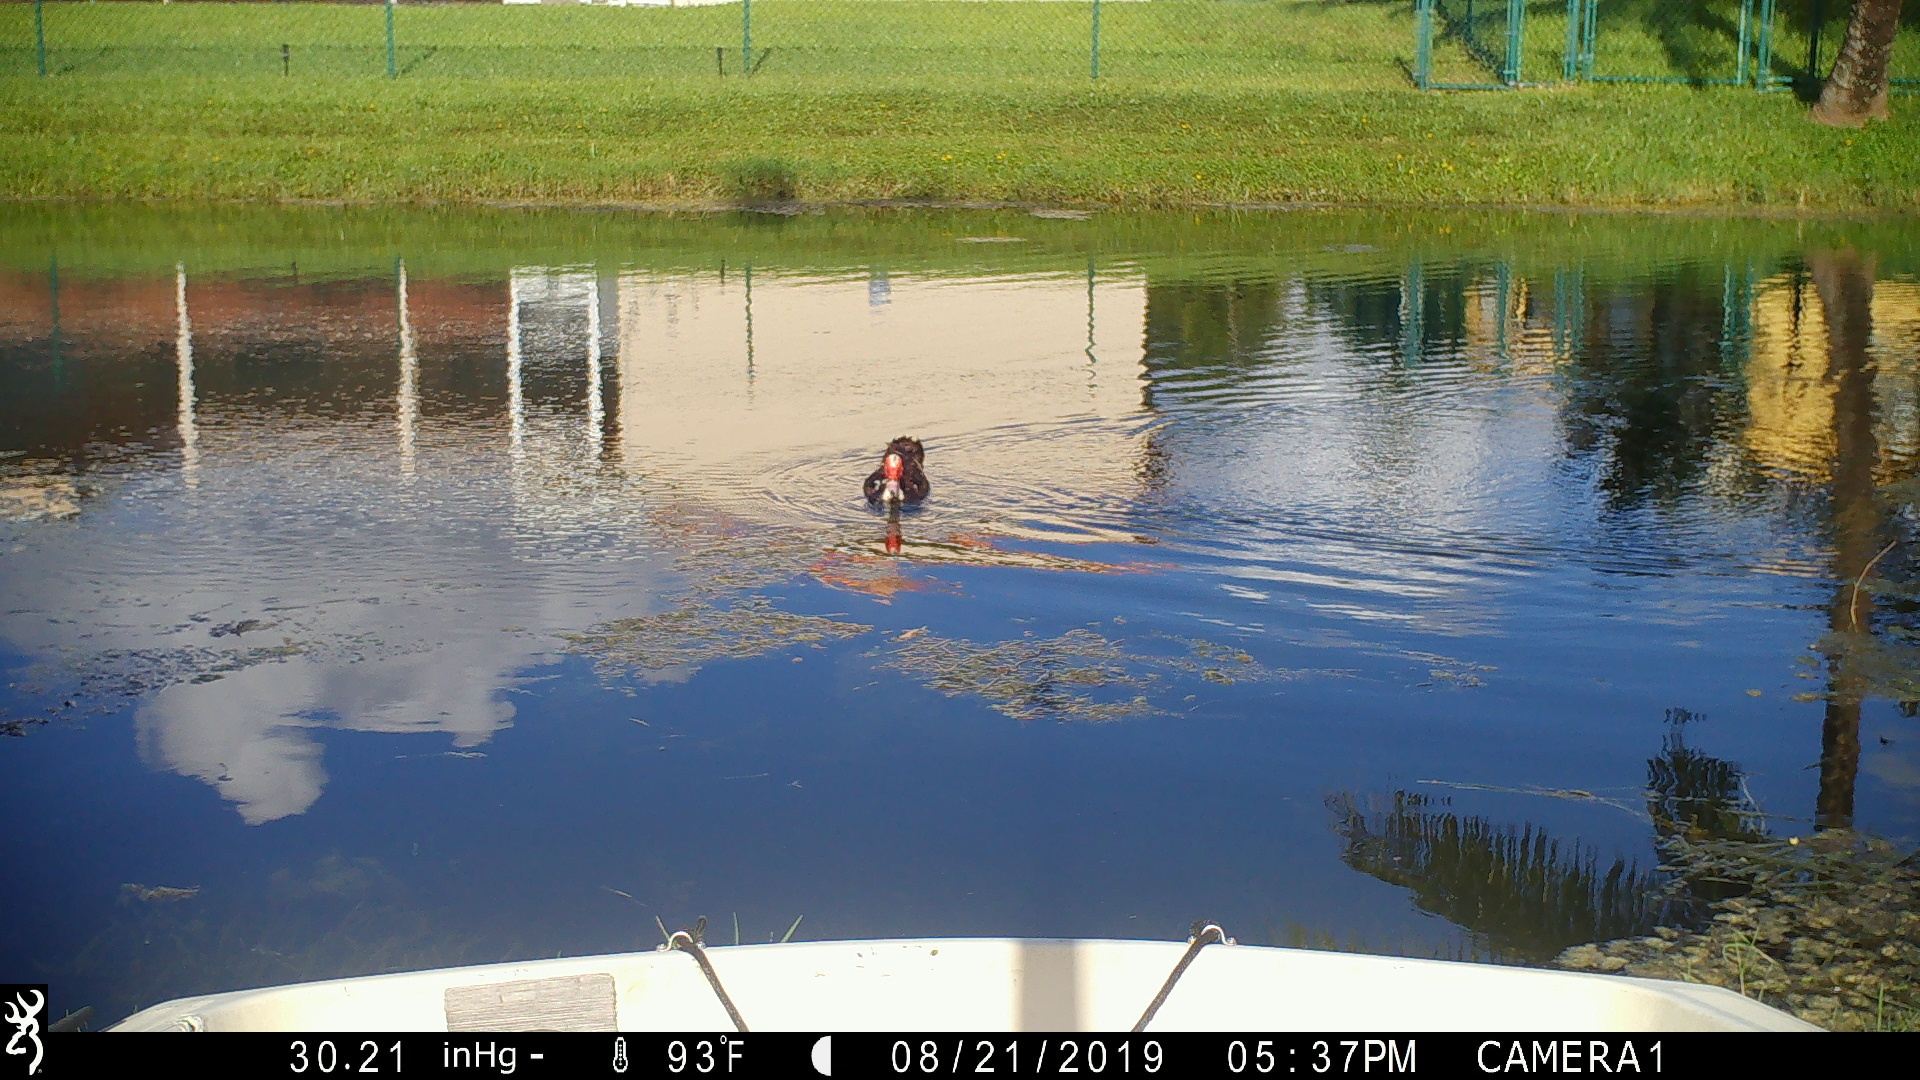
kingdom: Animalia
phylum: Chordata
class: Aves
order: Anseriformes
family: Anatidae
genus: Cairina
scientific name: Cairina moschata
